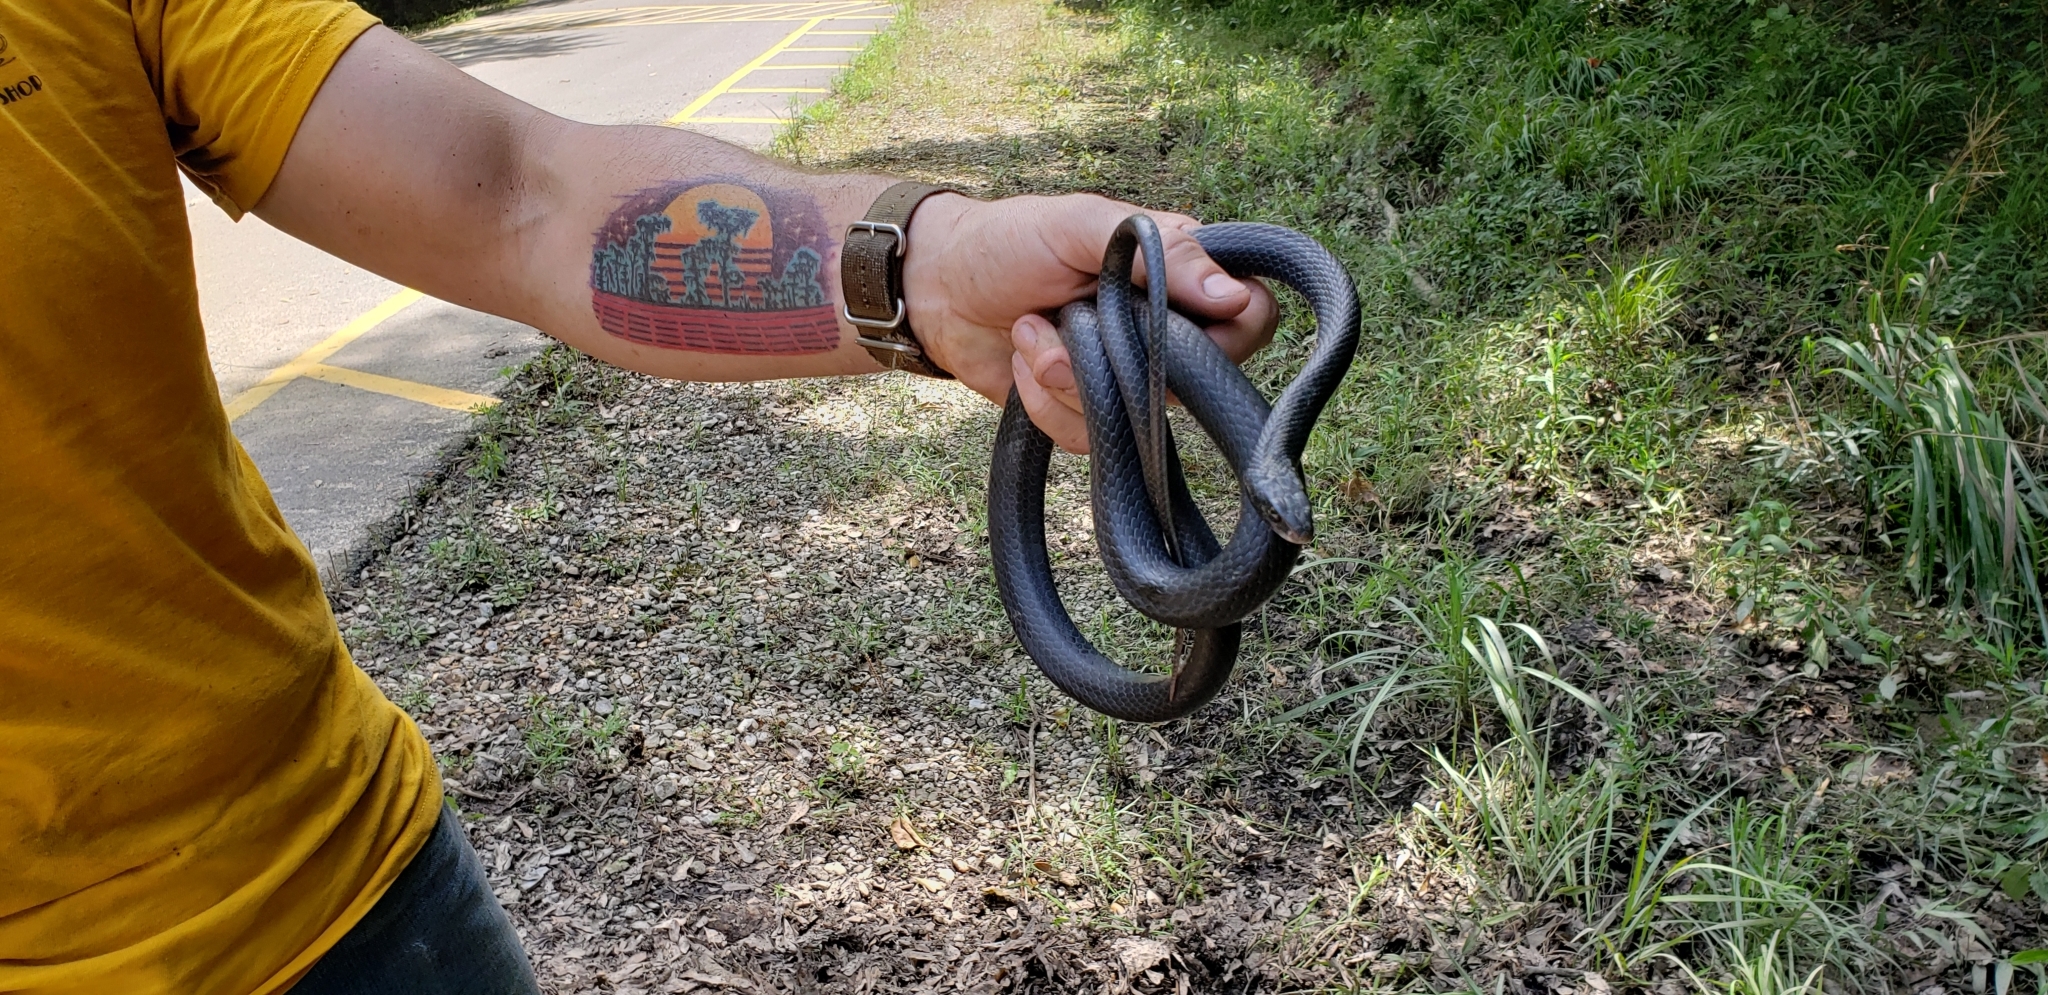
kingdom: Animalia
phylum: Chordata
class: Squamata
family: Colubridae
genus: Coluber
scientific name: Coluber constrictor
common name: Eastern racer
